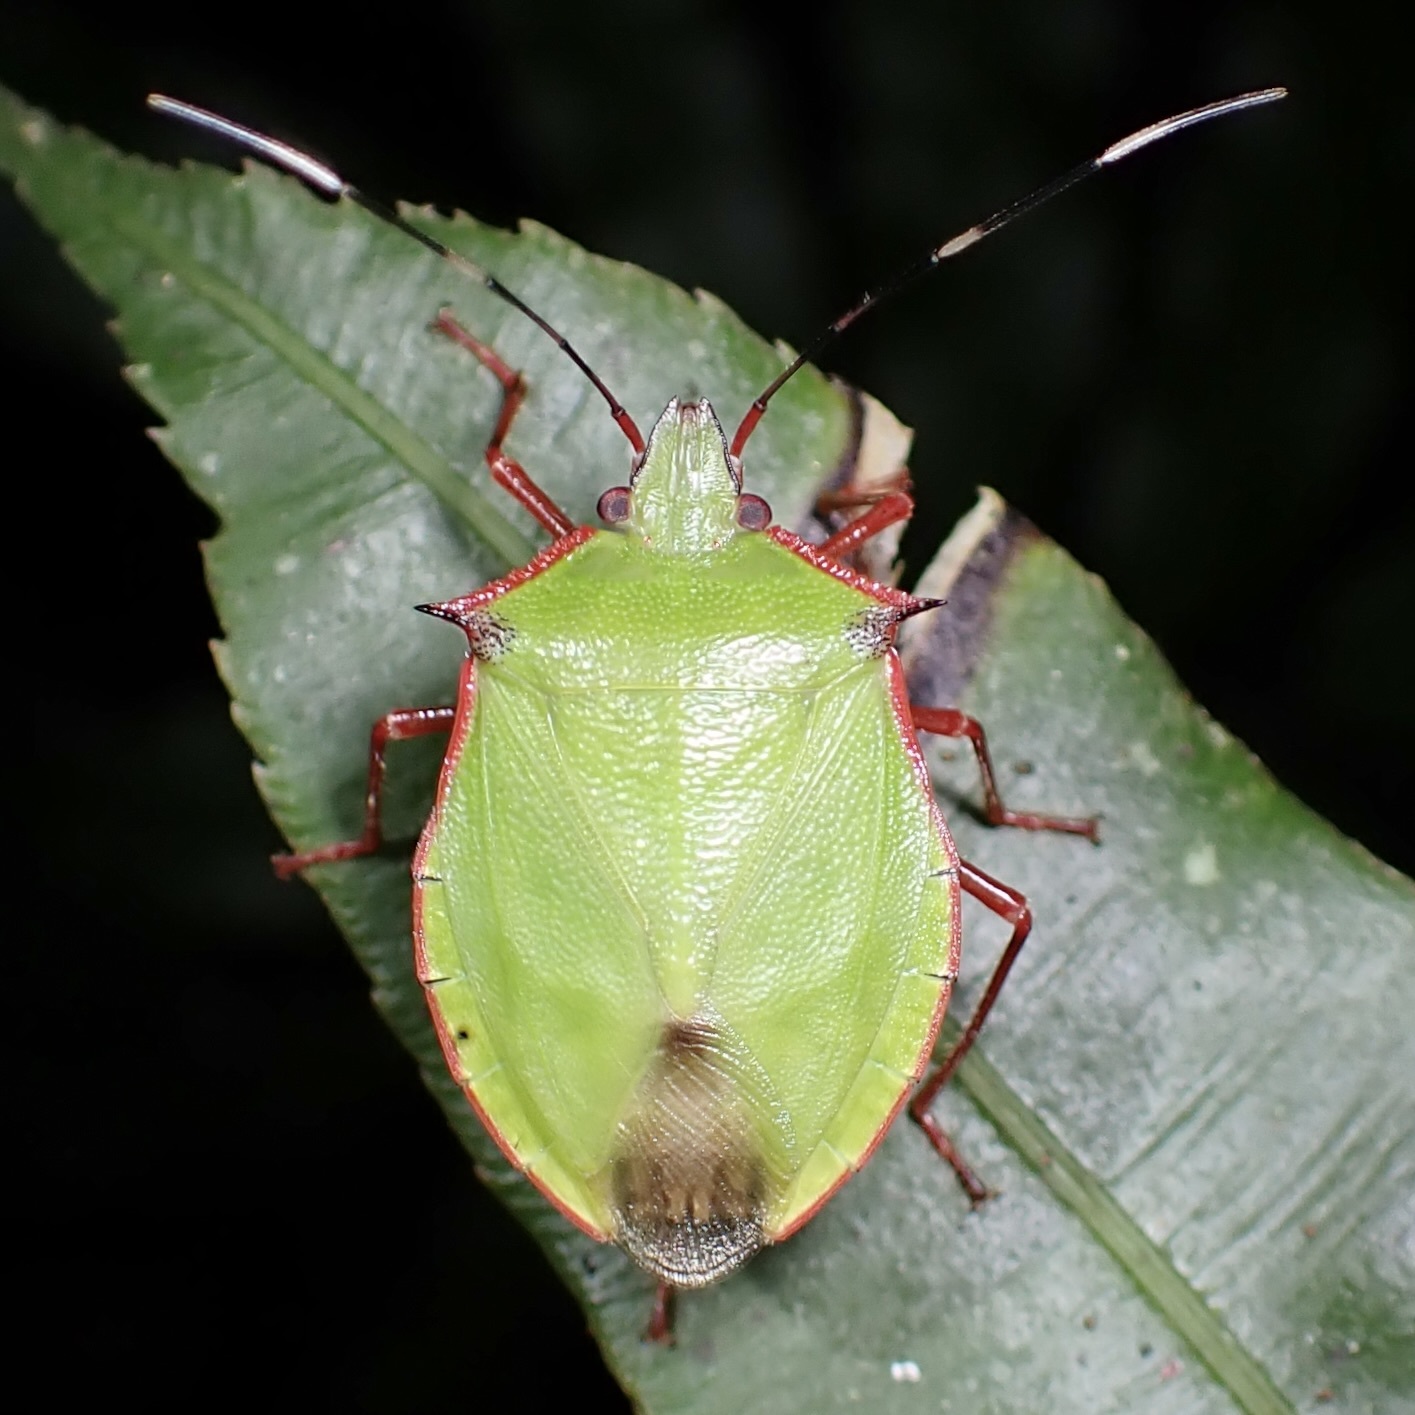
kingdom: Animalia
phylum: Arthropoda
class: Insecta
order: Hemiptera
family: Pentatomidae
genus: Chlorocoris
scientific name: Chlorocoris distinctus
